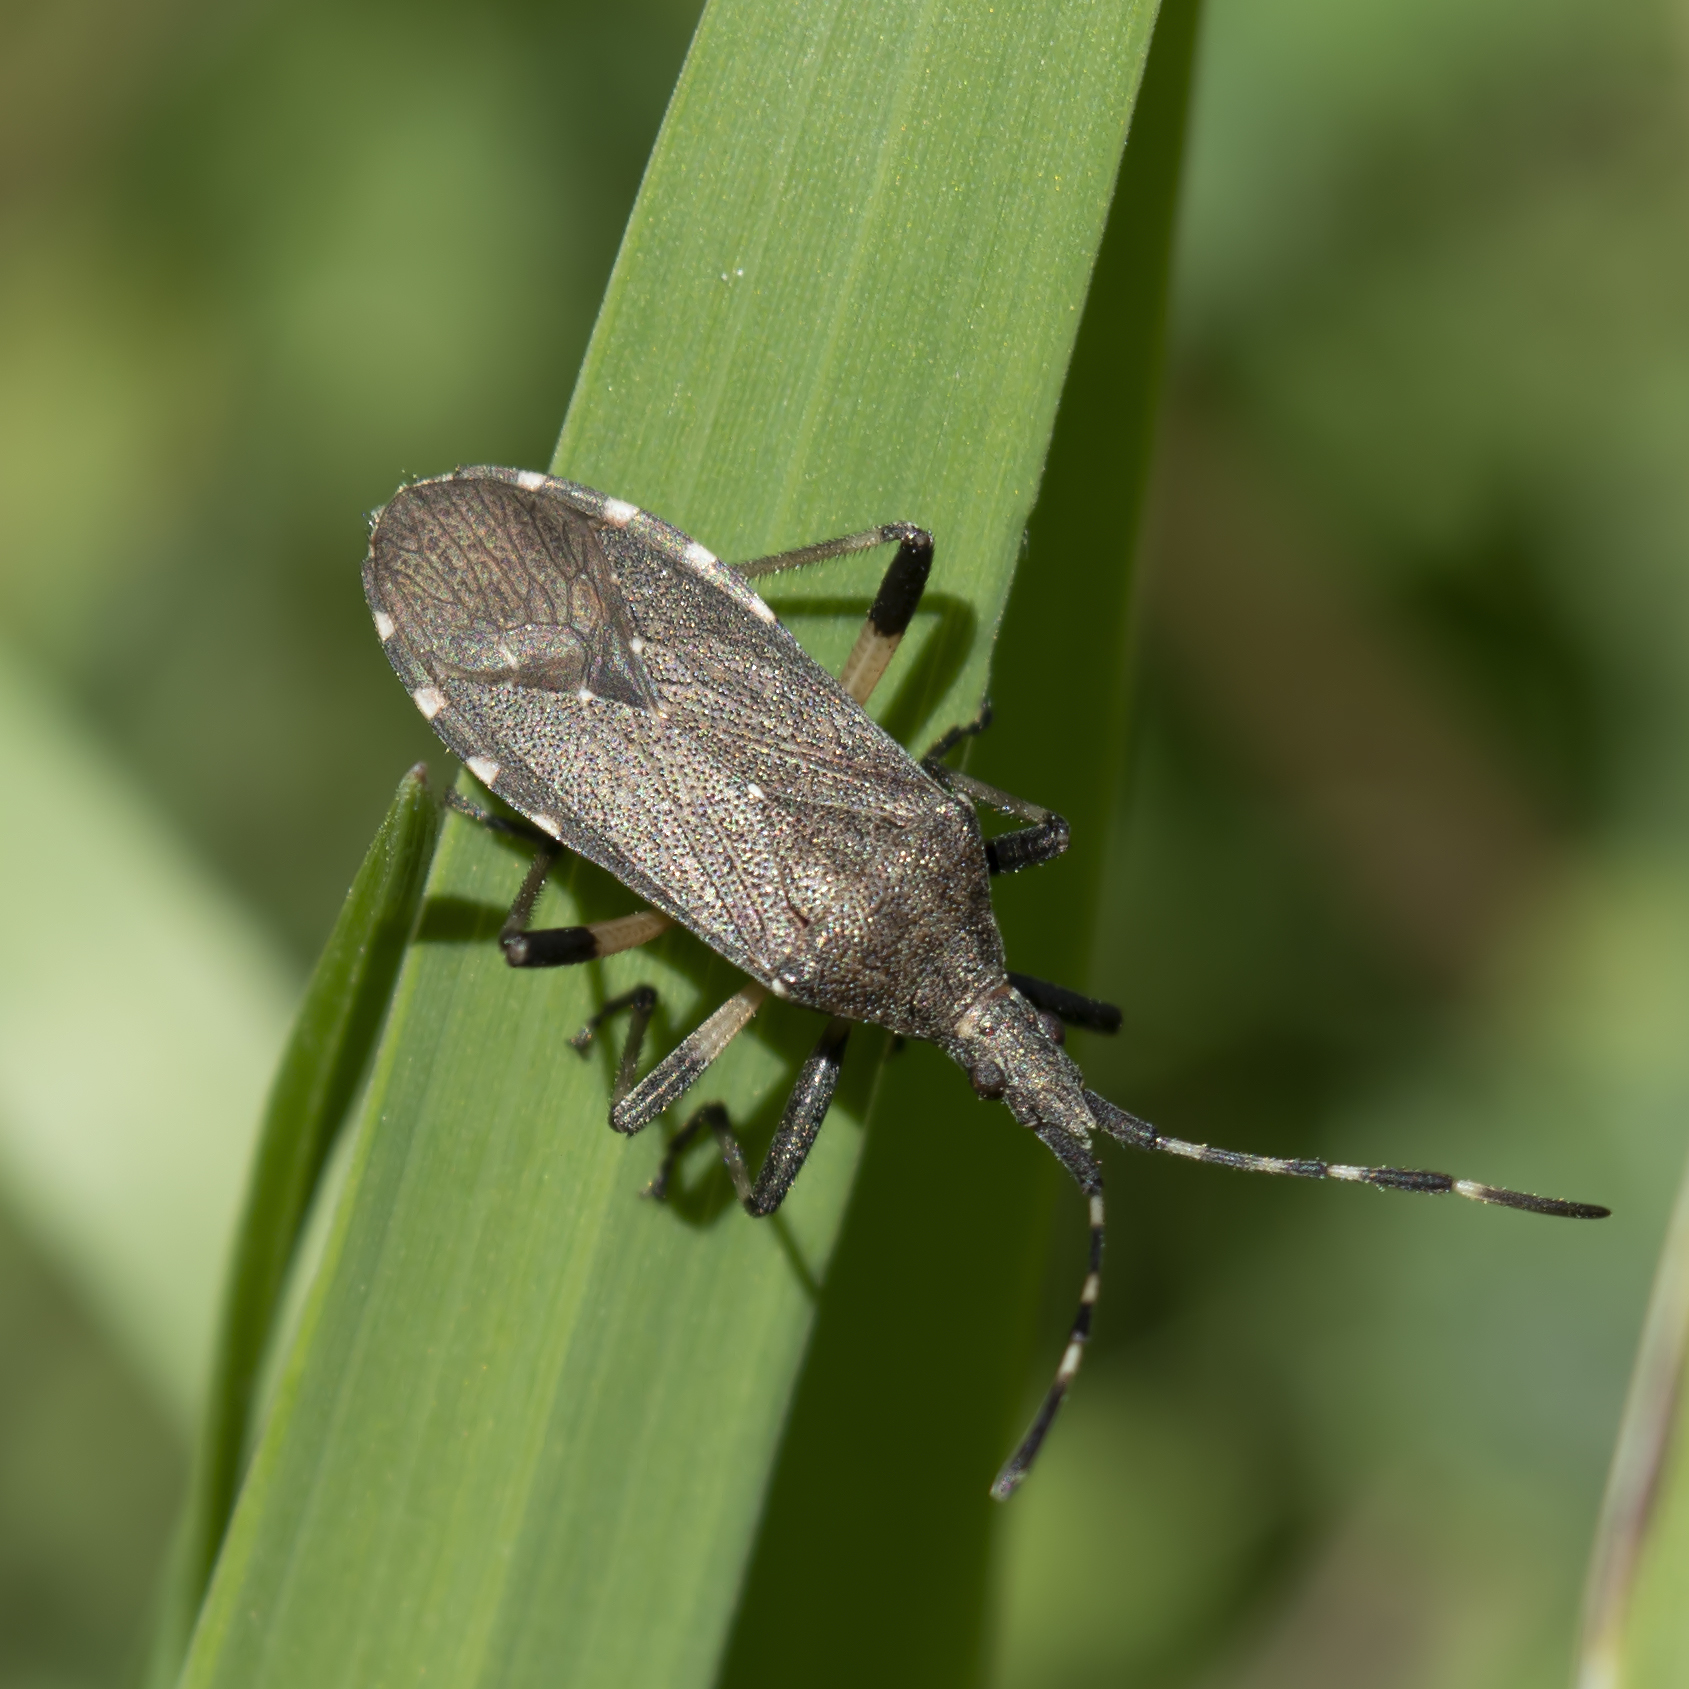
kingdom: Animalia
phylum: Arthropoda
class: Insecta
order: Hemiptera
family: Stenocephalidae
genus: Dicranocephalus
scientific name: Dicranocephalus agilis
